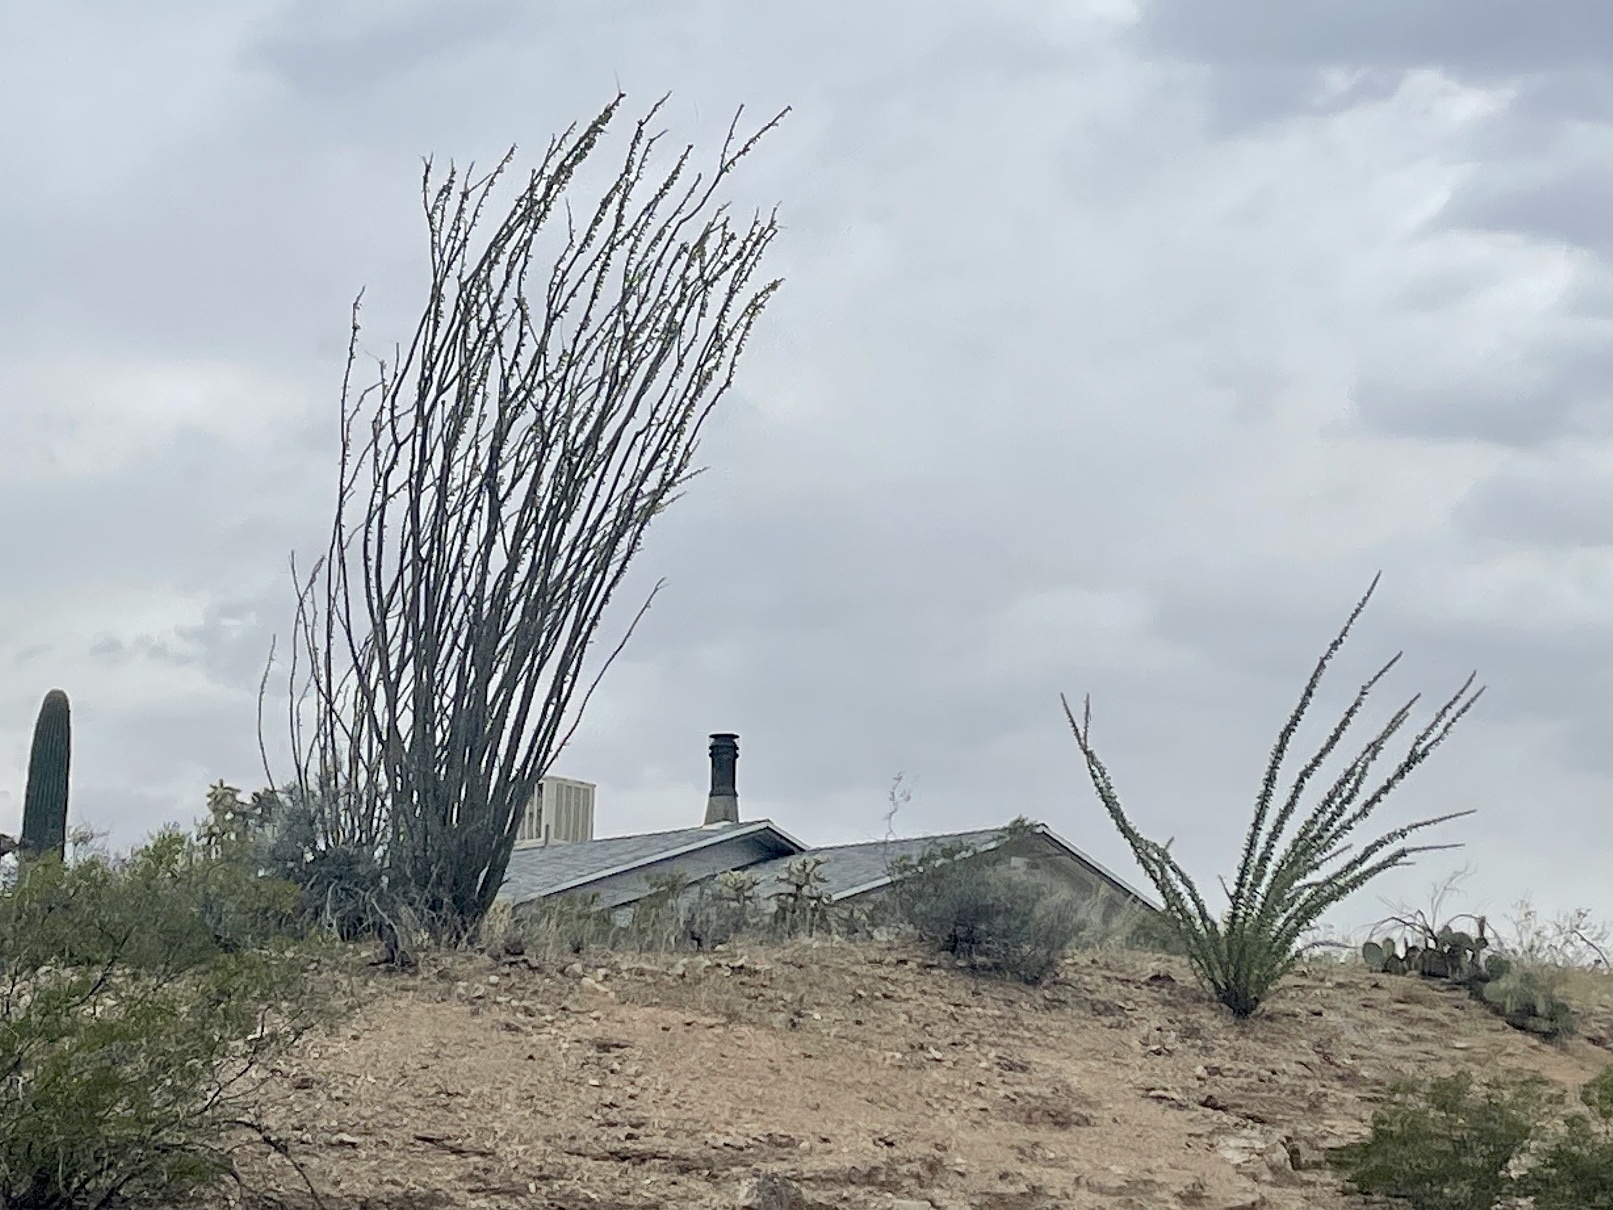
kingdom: Plantae
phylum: Tracheophyta
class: Magnoliopsida
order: Ericales
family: Fouquieriaceae
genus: Fouquieria
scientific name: Fouquieria splendens
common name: Vine-cactus
